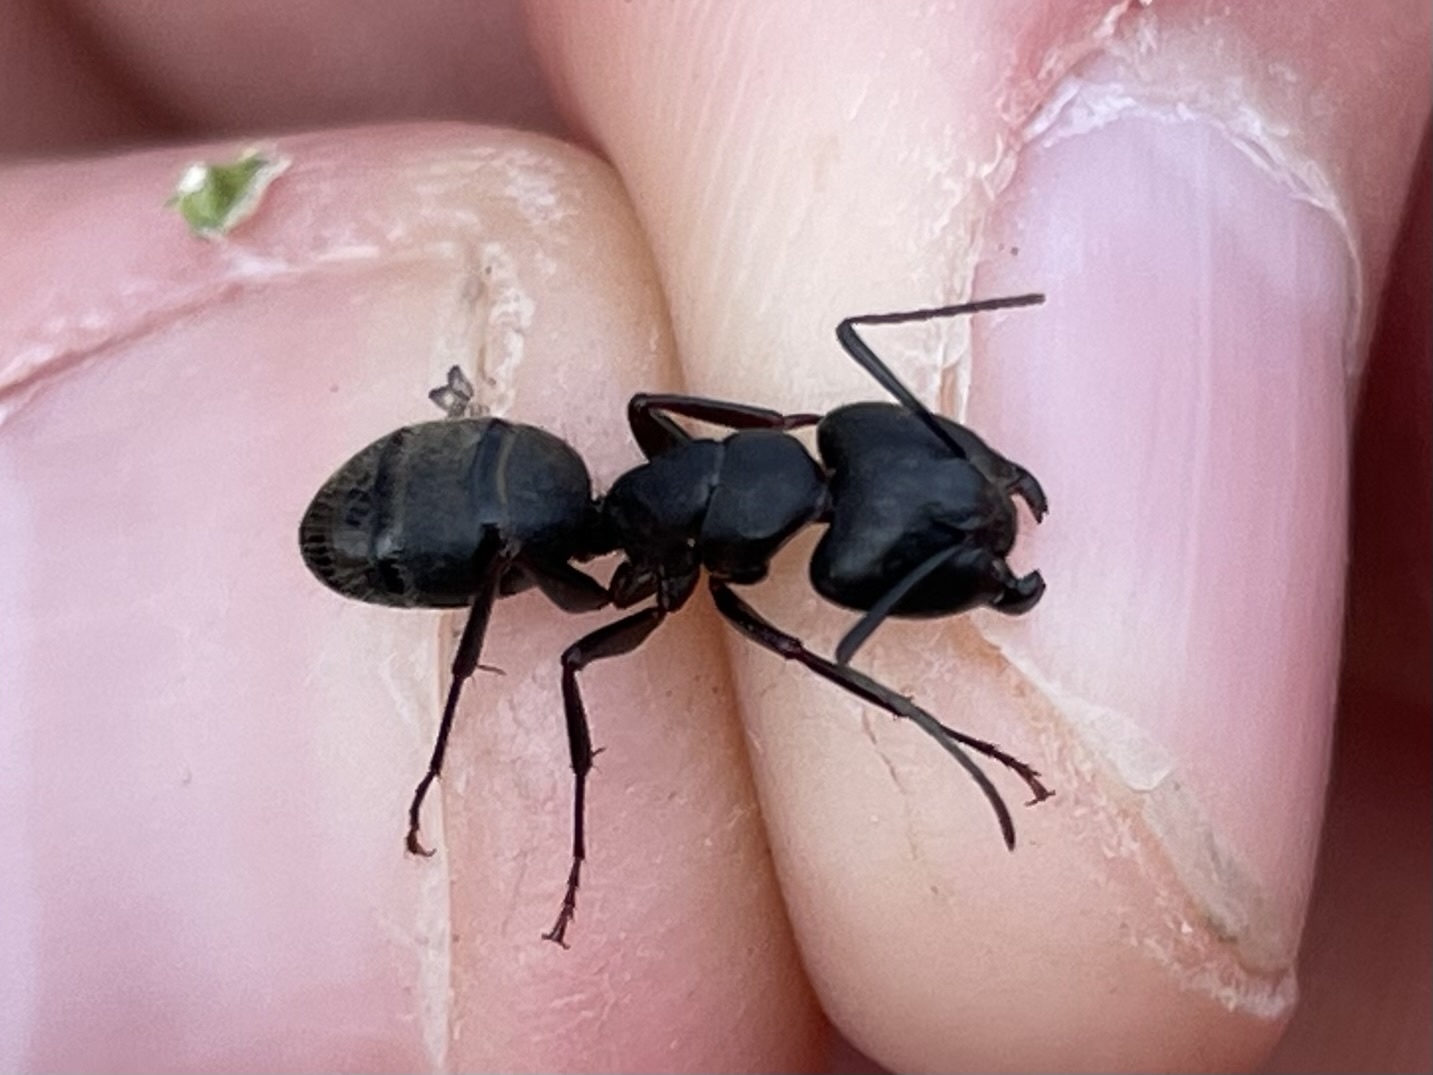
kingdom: Animalia
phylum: Arthropoda
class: Insecta
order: Hymenoptera
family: Formicidae
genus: Camponotus
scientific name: Camponotus pennsylvanicus
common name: Black carpenter ant
